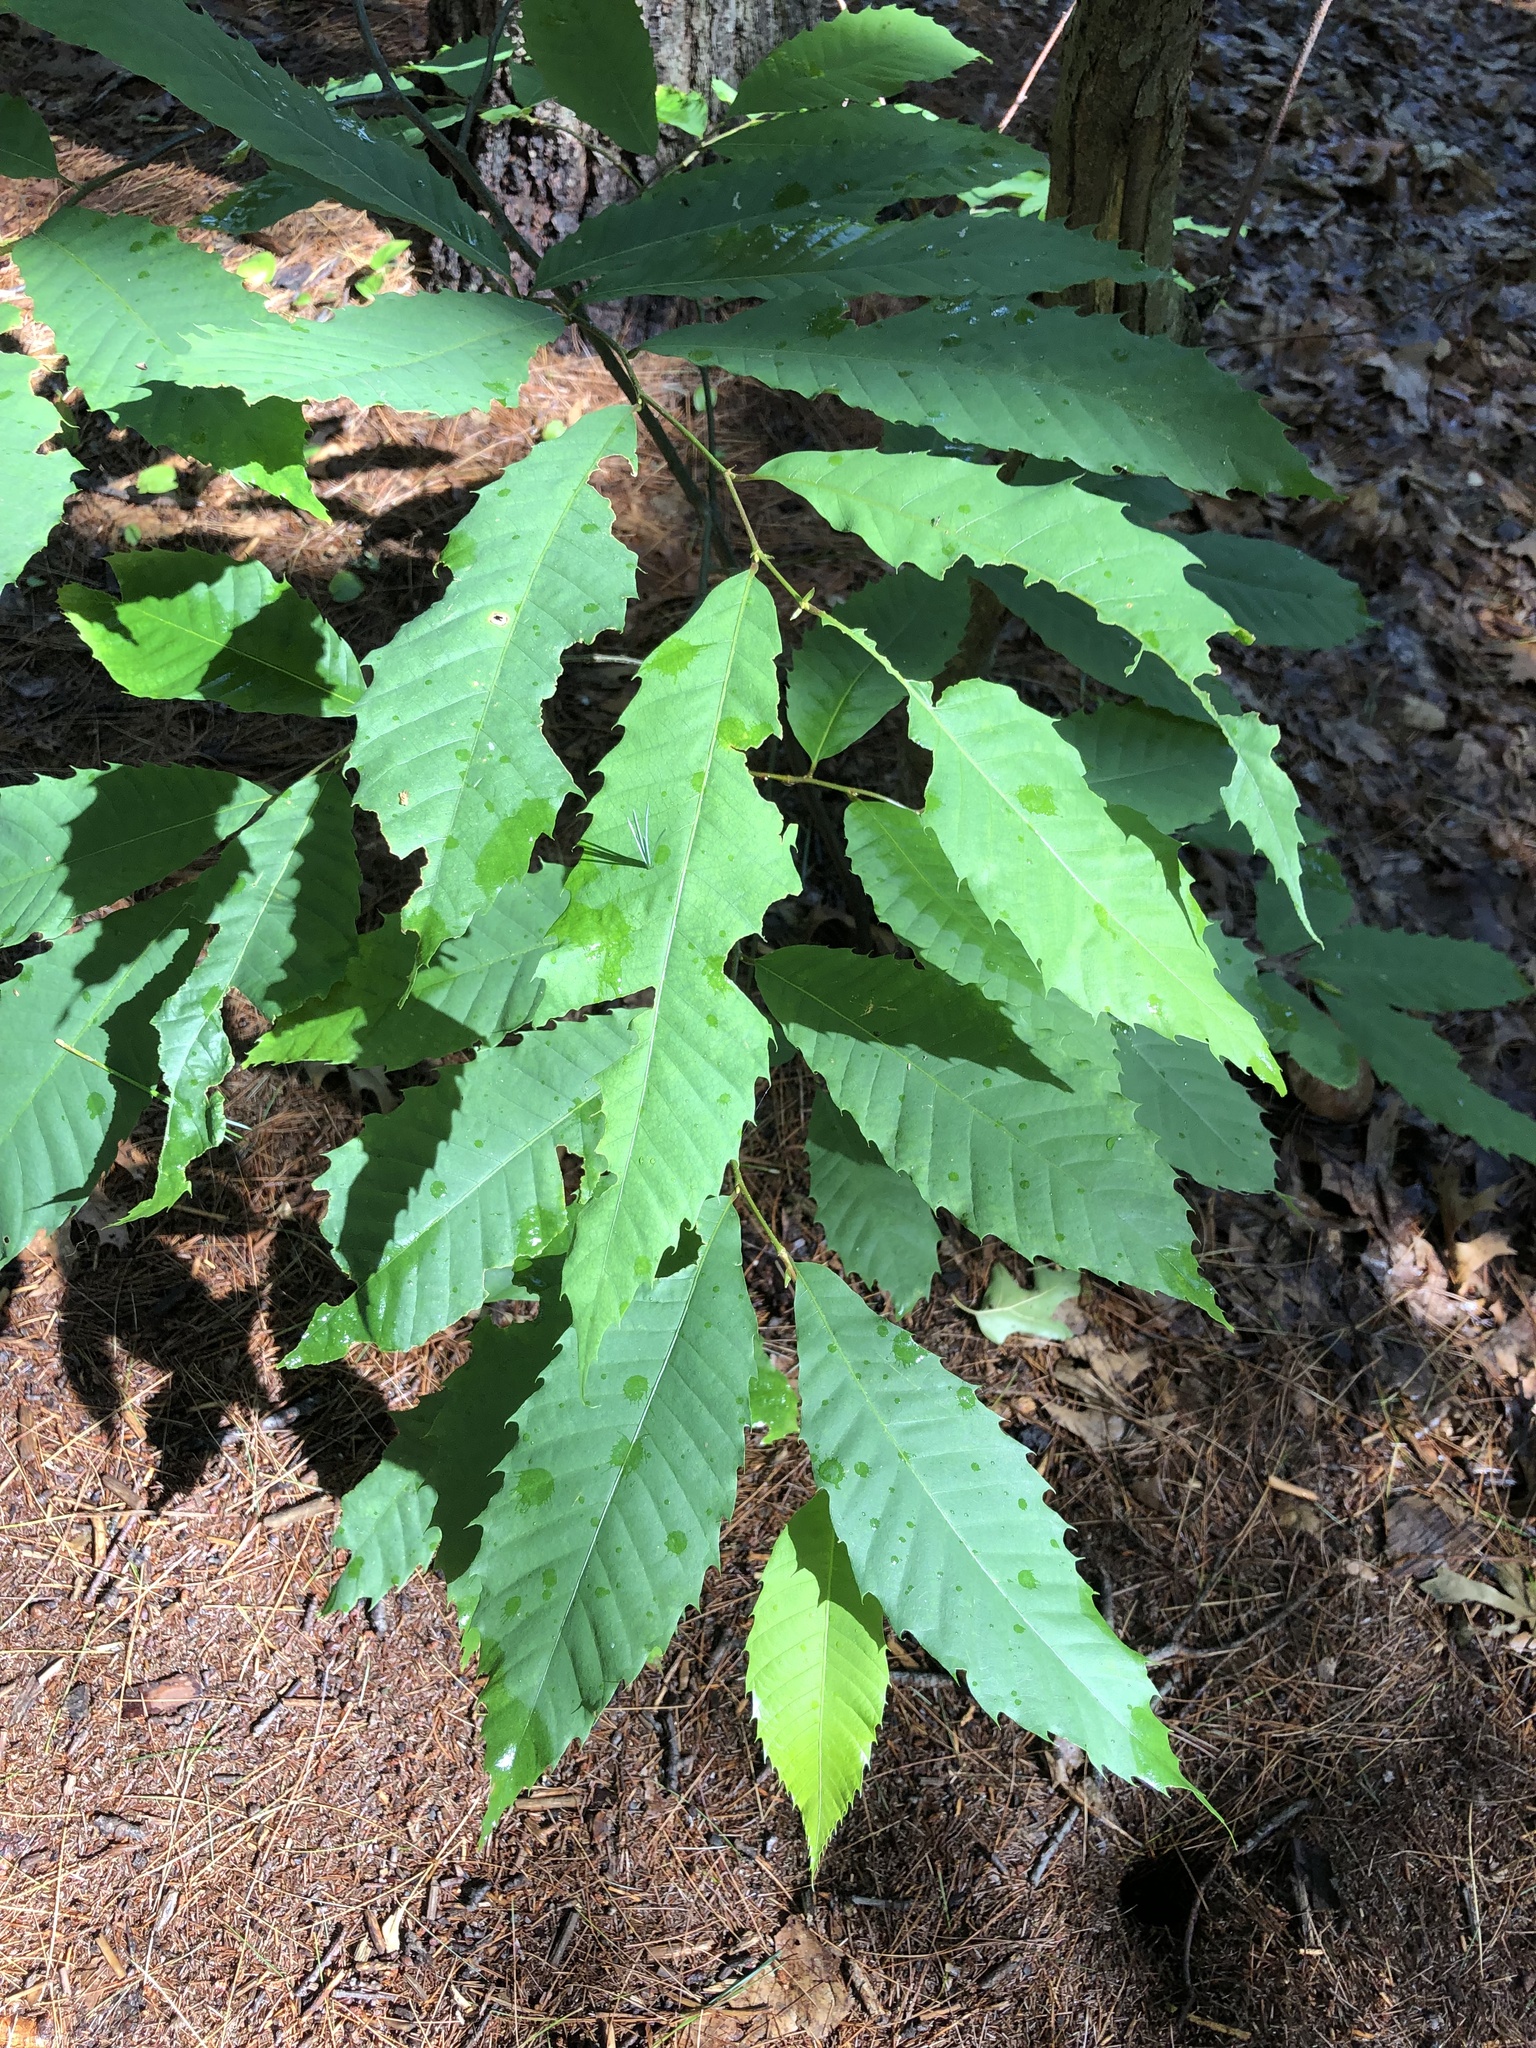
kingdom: Plantae
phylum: Tracheophyta
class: Magnoliopsida
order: Fagales
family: Fagaceae
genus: Castanea
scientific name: Castanea dentata
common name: American chestnut
